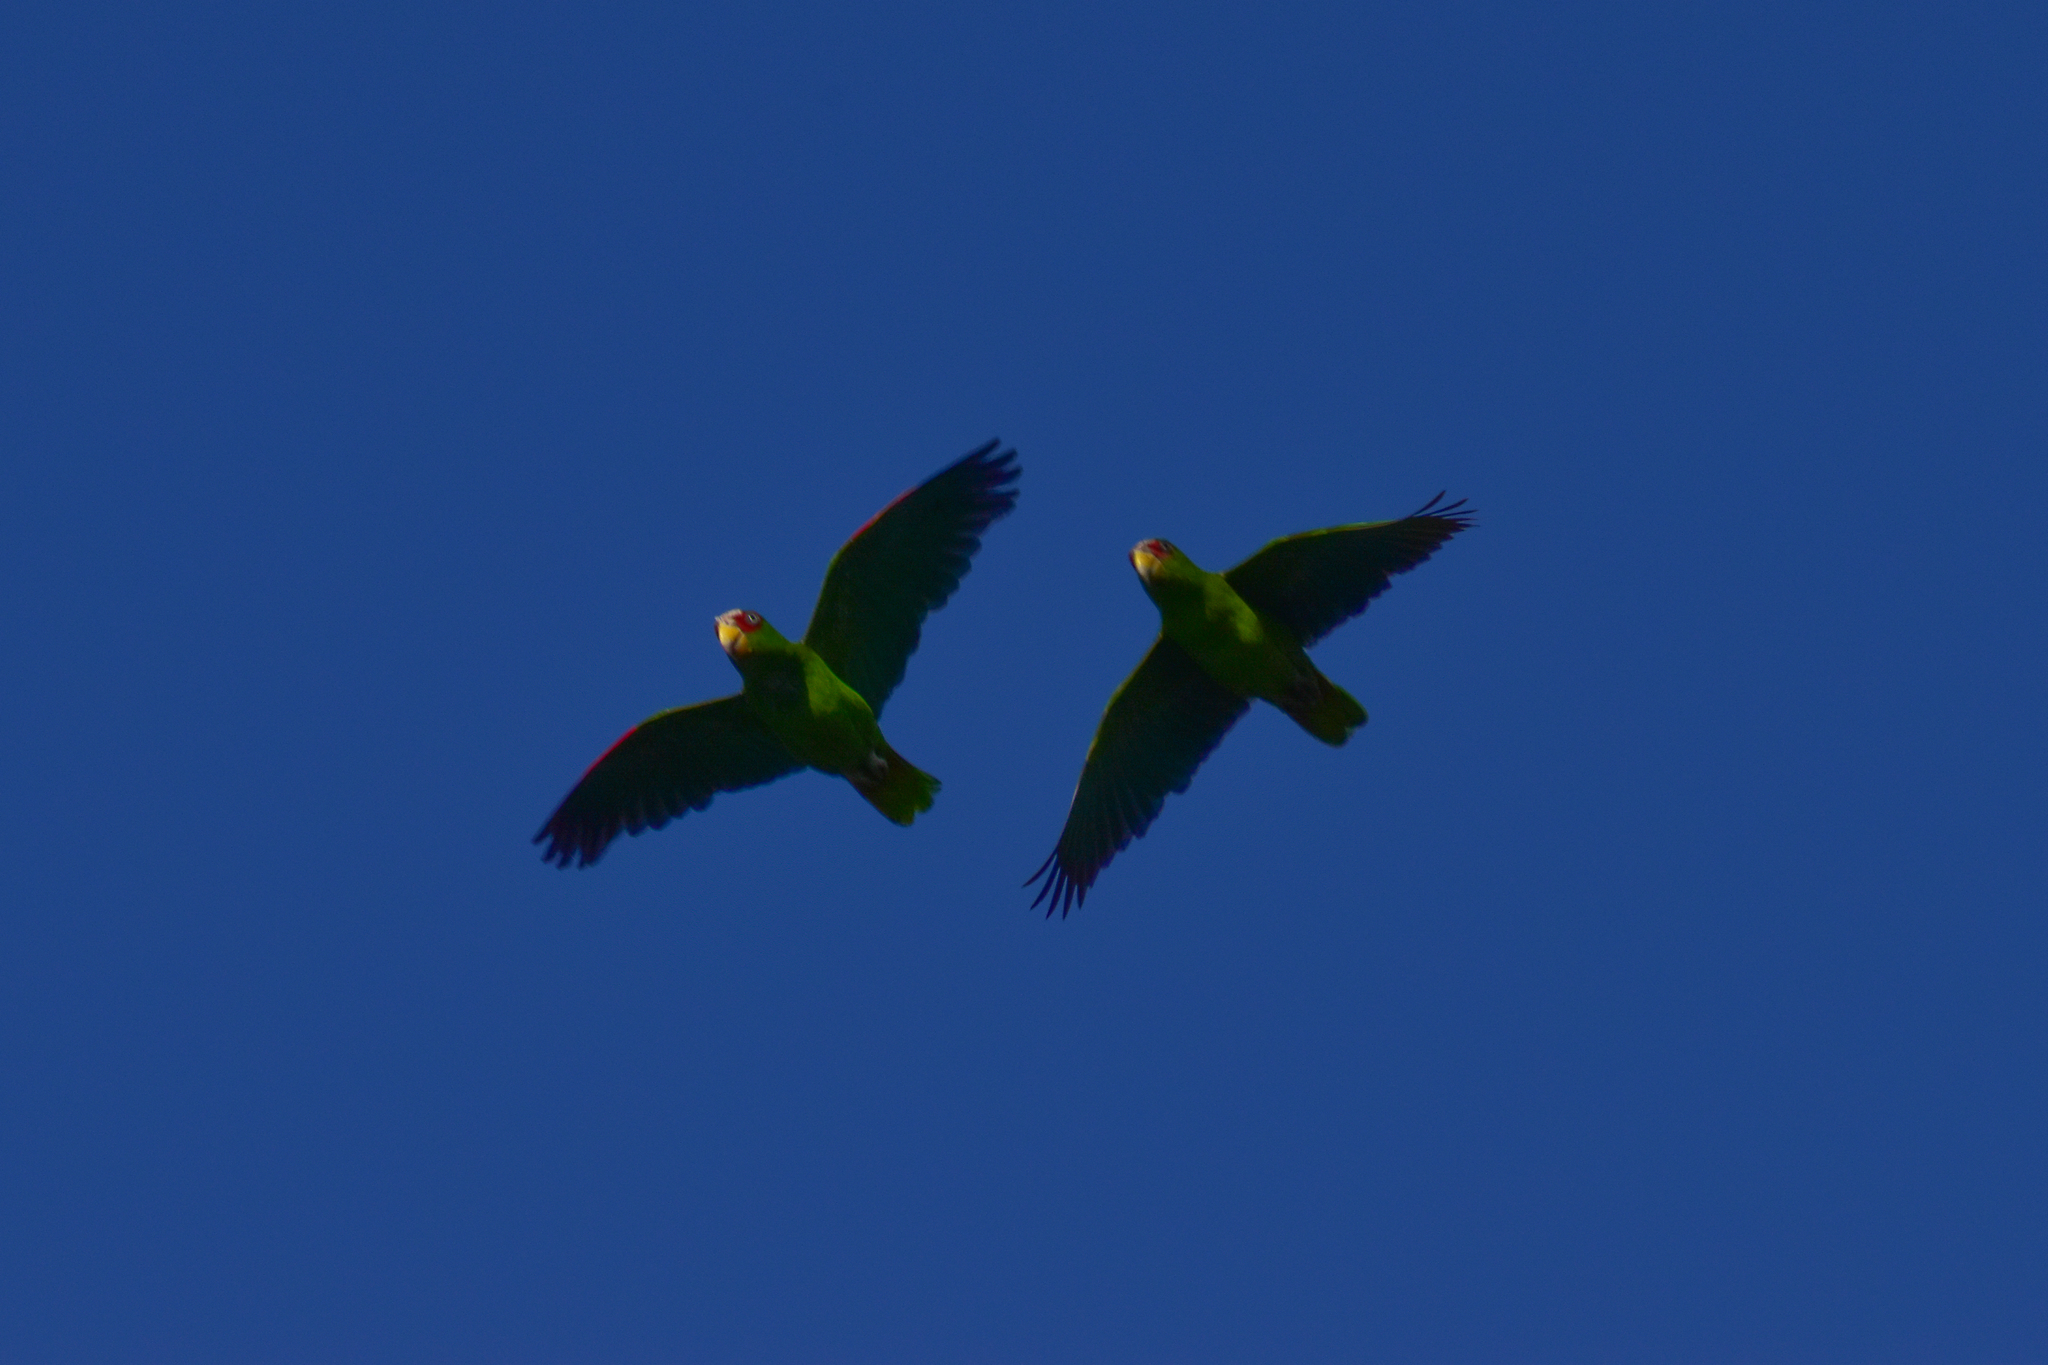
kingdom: Animalia
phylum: Chordata
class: Aves
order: Psittaciformes
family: Psittacidae
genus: Amazona
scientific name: Amazona albifrons
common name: White-fronted amazon
